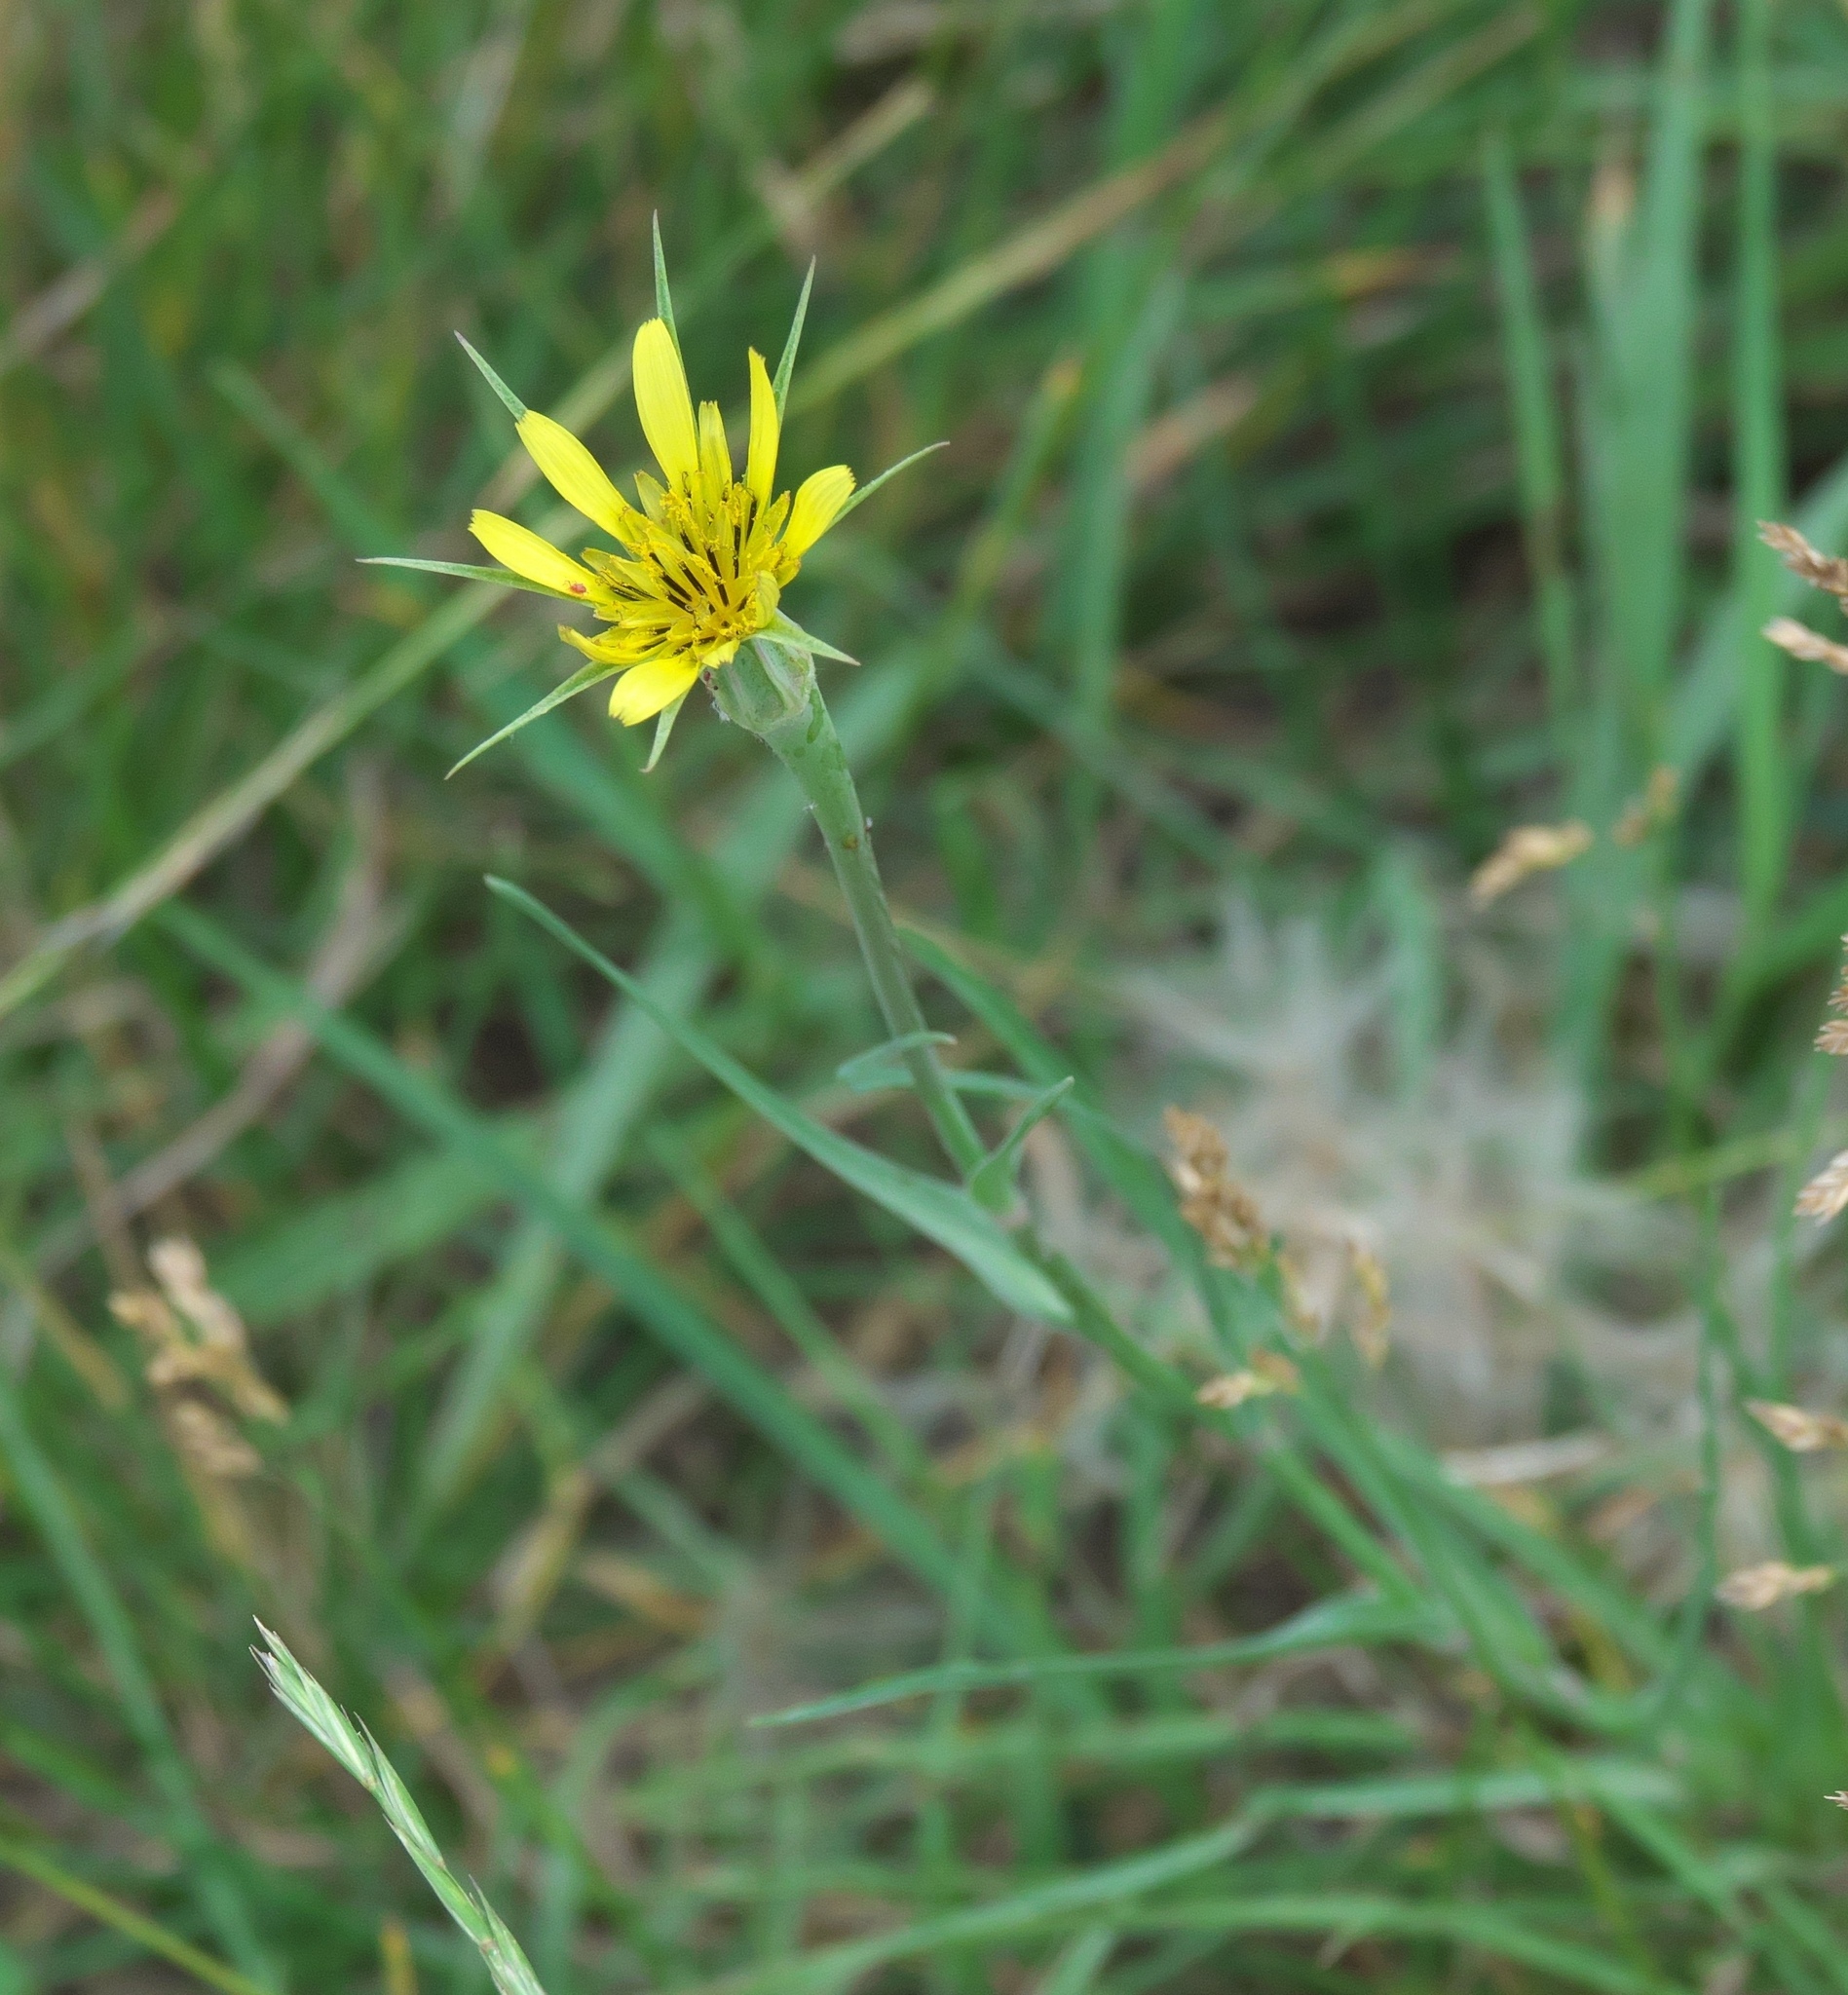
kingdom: Plantae
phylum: Tracheophyta
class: Magnoliopsida
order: Asterales
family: Asteraceae
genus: Tragopogon
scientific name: Tragopogon dubius
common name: Yellow salsify
